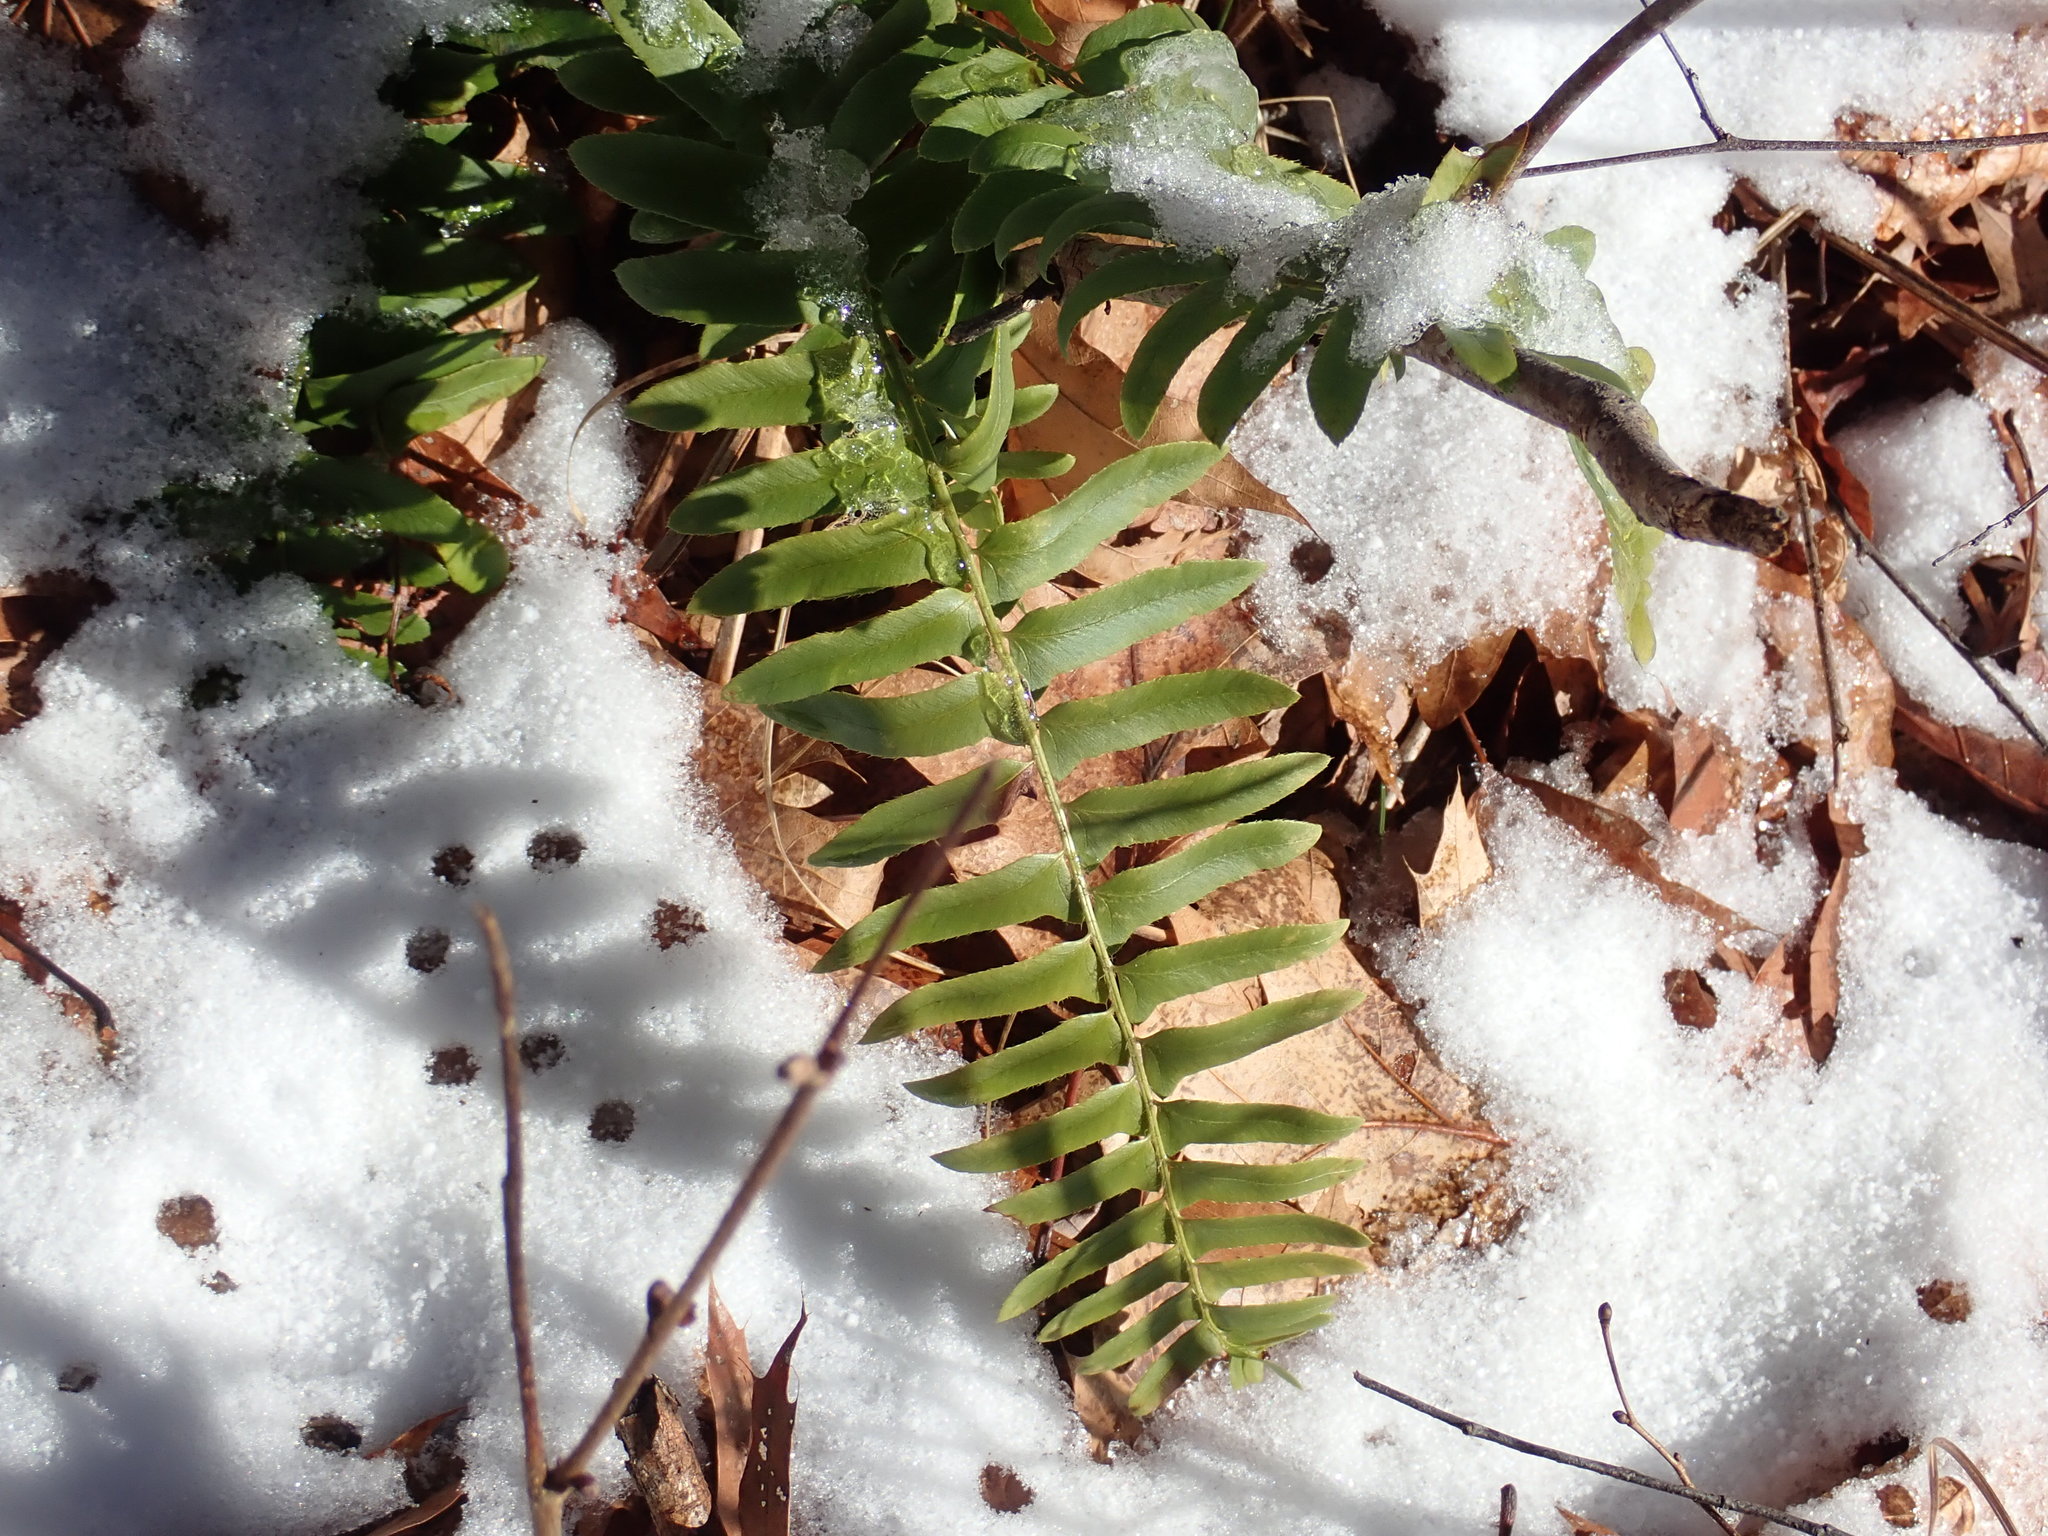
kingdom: Plantae
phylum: Tracheophyta
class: Polypodiopsida
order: Polypodiales
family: Dryopteridaceae
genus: Polystichum
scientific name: Polystichum acrostichoides
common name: Christmas fern
